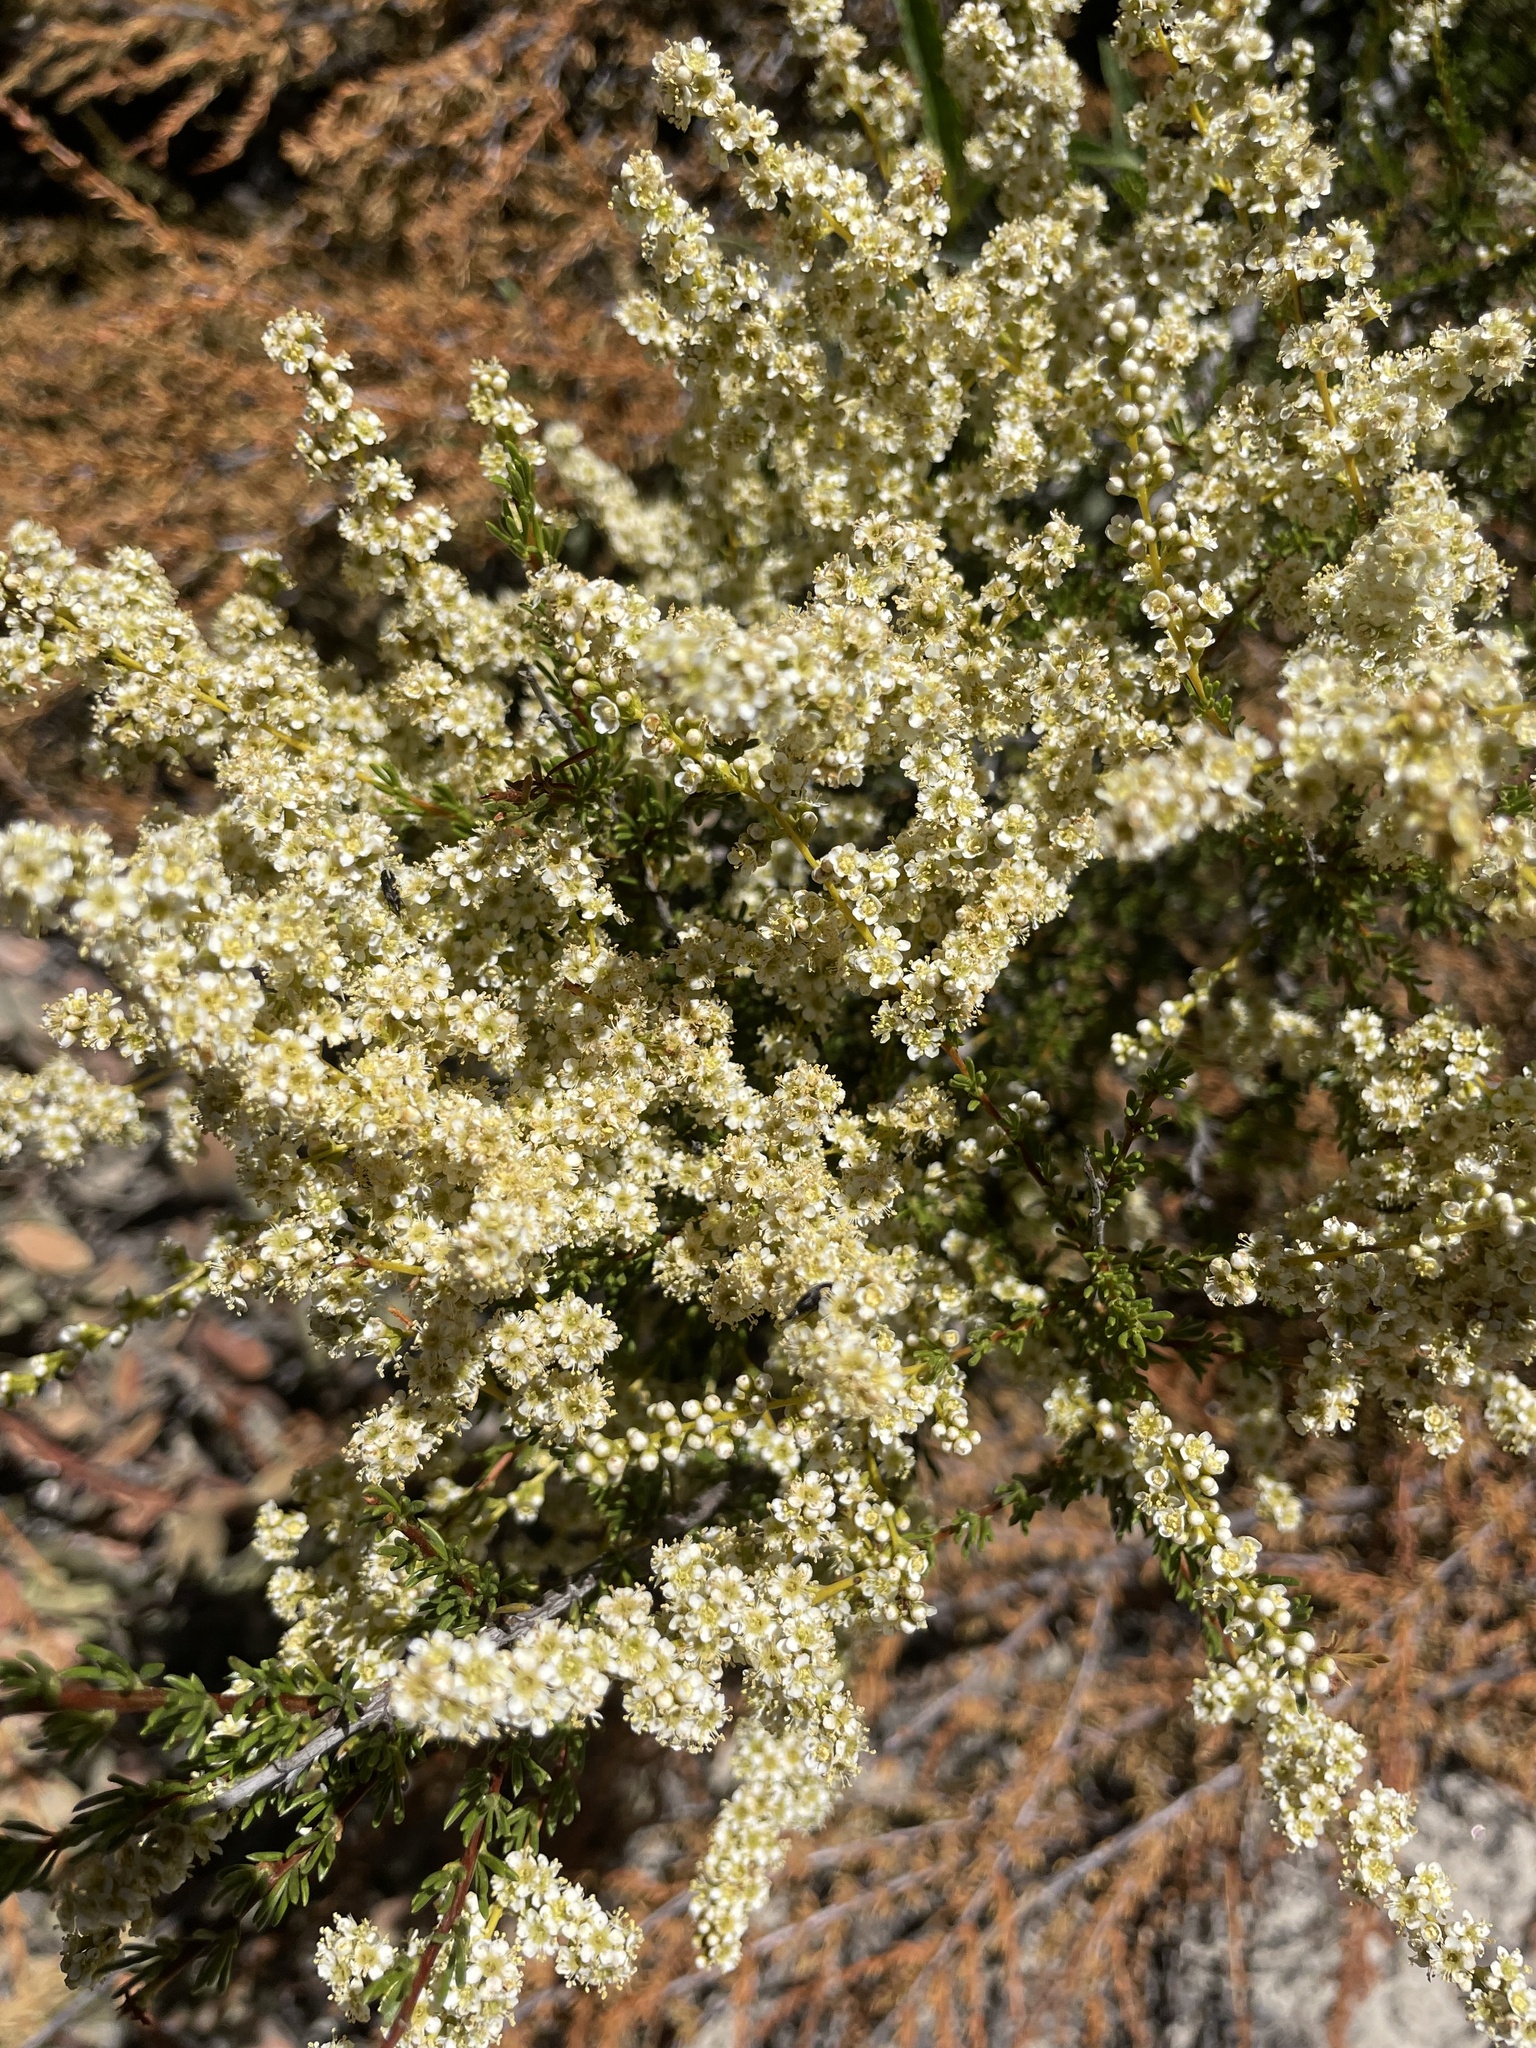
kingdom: Plantae
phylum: Tracheophyta
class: Magnoliopsida
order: Rosales
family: Rosaceae
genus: Adenostoma
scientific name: Adenostoma fasciculatum
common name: Chamise
